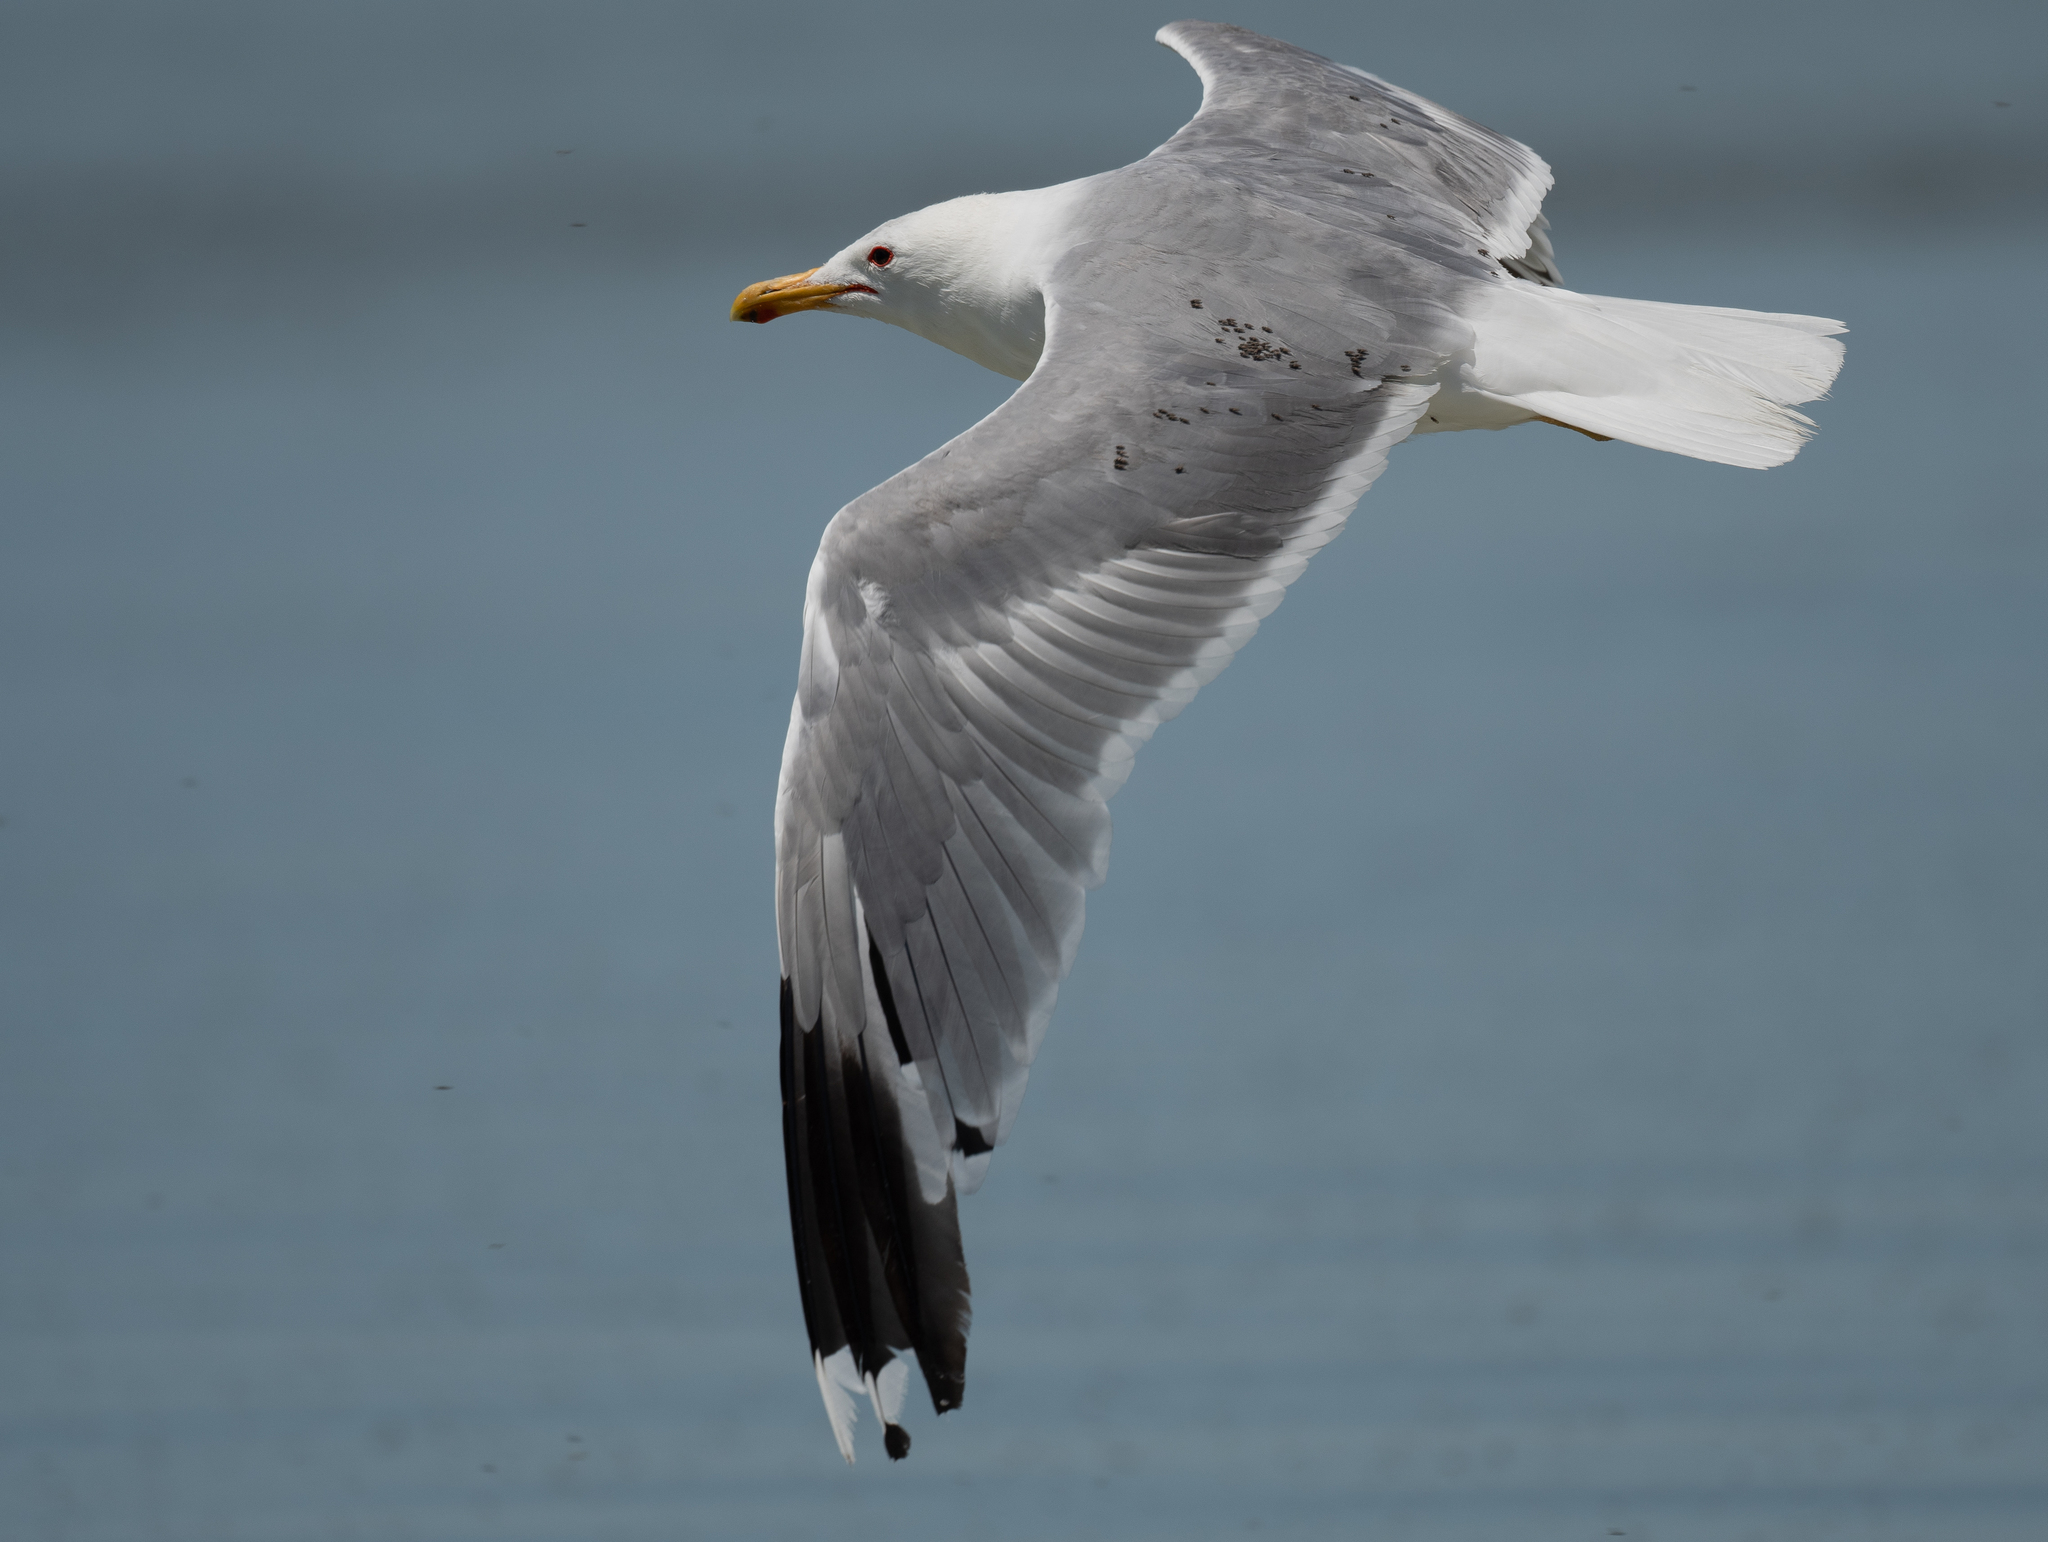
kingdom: Animalia
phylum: Chordata
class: Aves
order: Charadriiformes
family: Laridae
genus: Larus
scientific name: Larus californicus
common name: California gull
